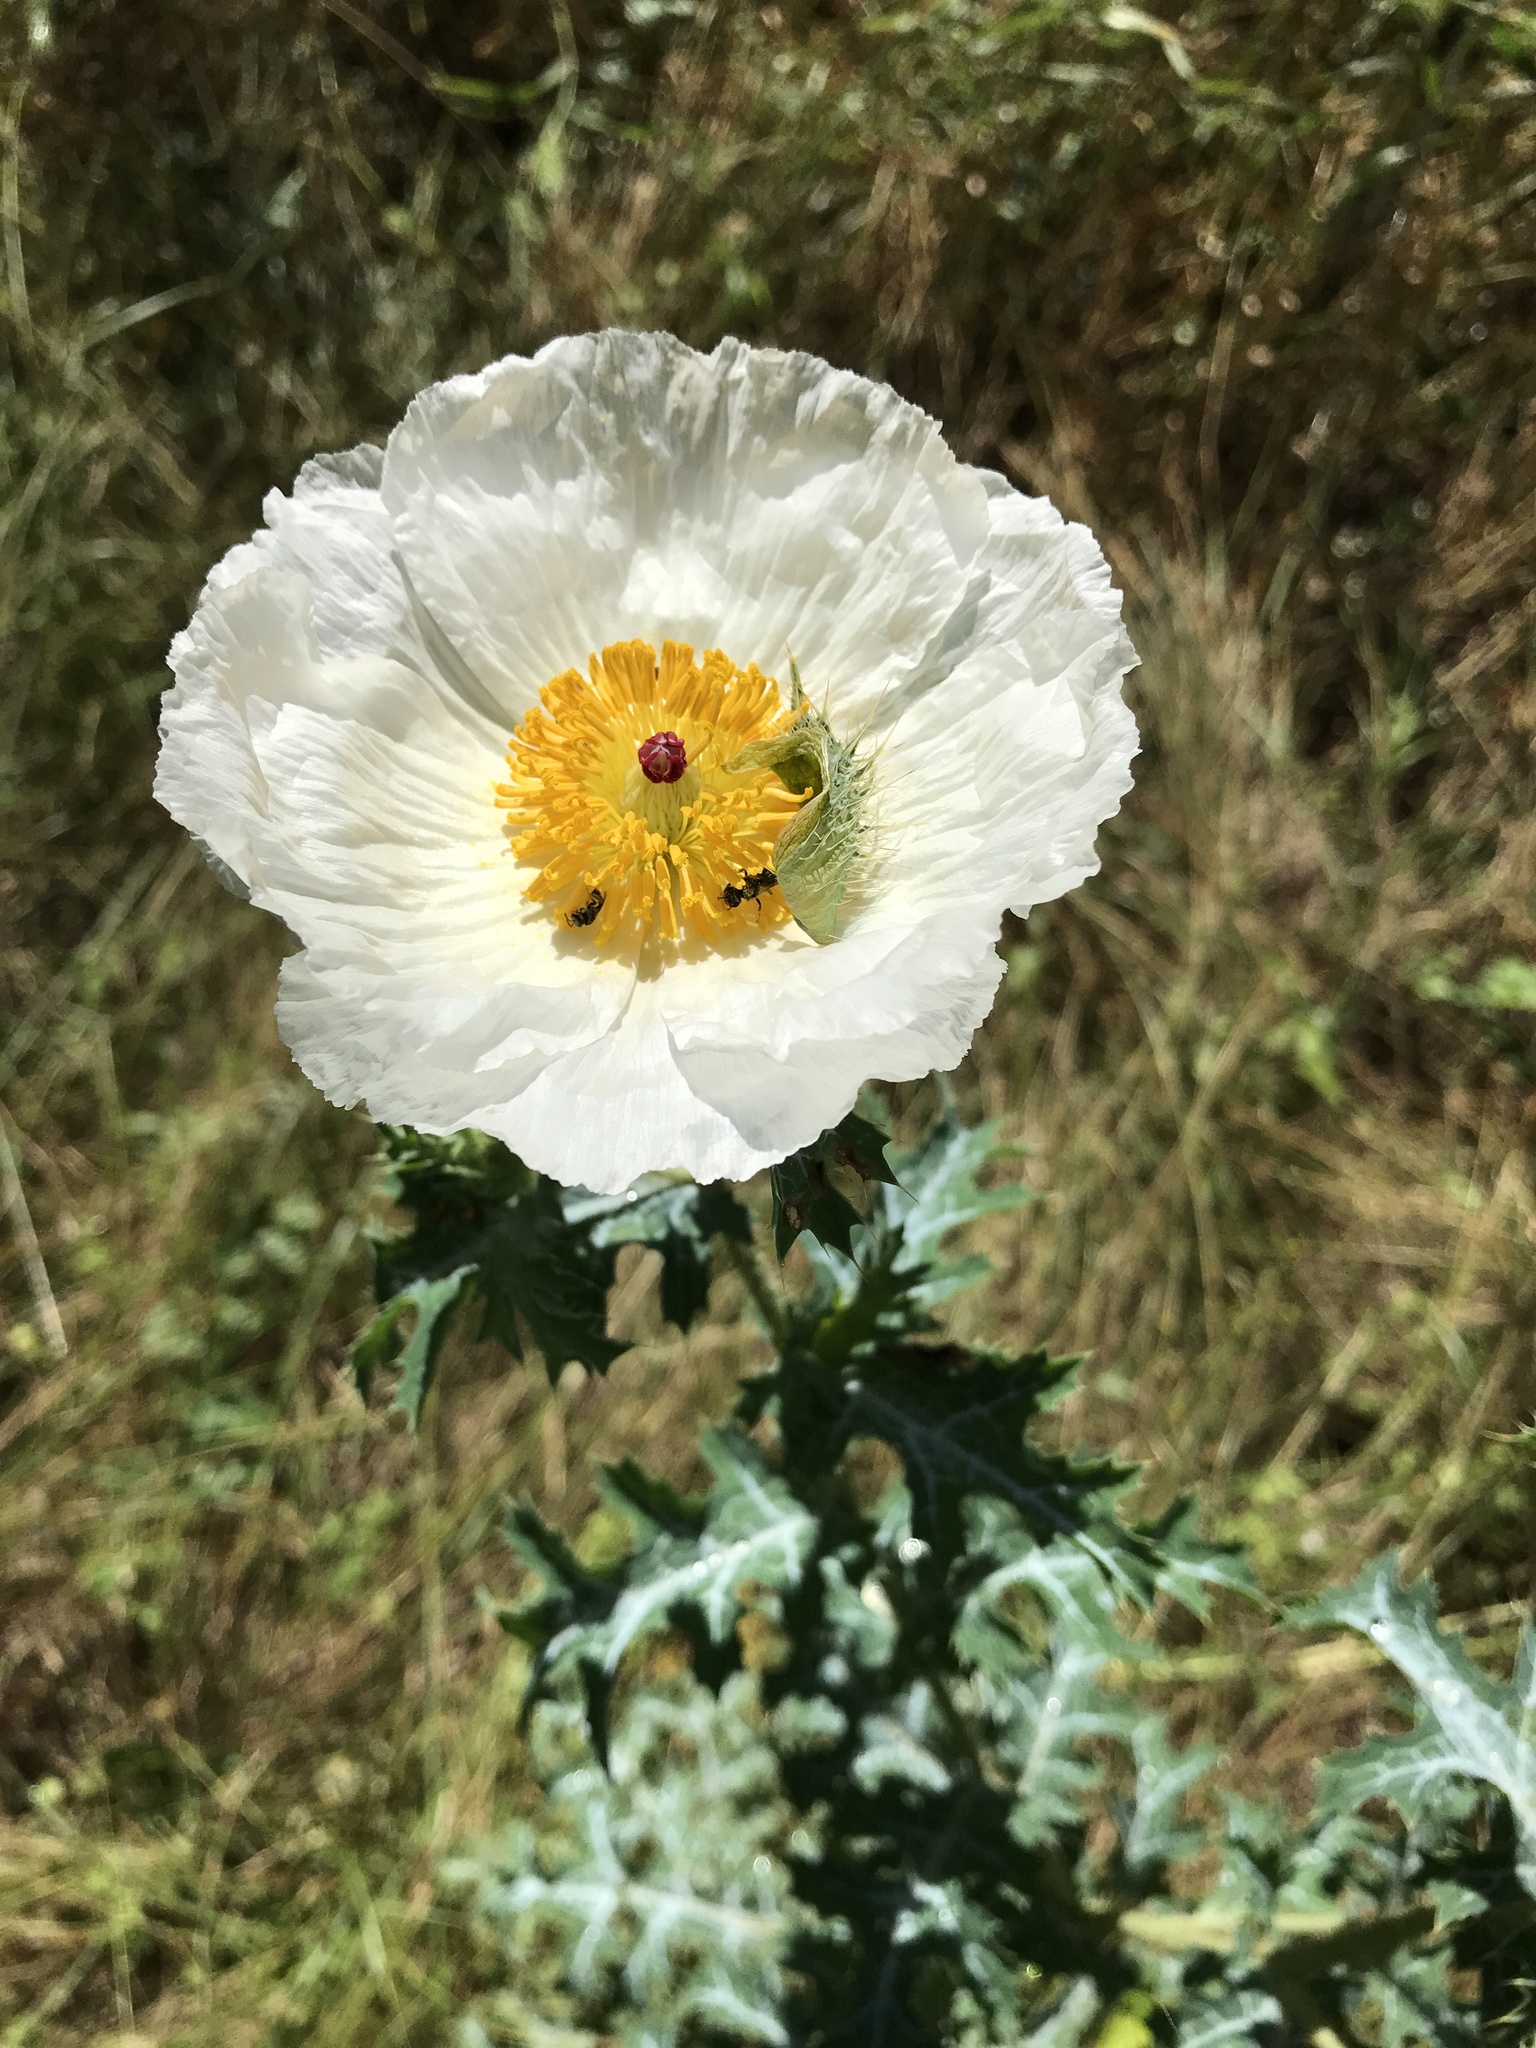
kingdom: Plantae
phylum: Tracheophyta
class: Magnoliopsida
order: Ranunculales
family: Papaveraceae
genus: Argemone
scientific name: Argemone aurantiaca
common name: Texas prickly-poppy
